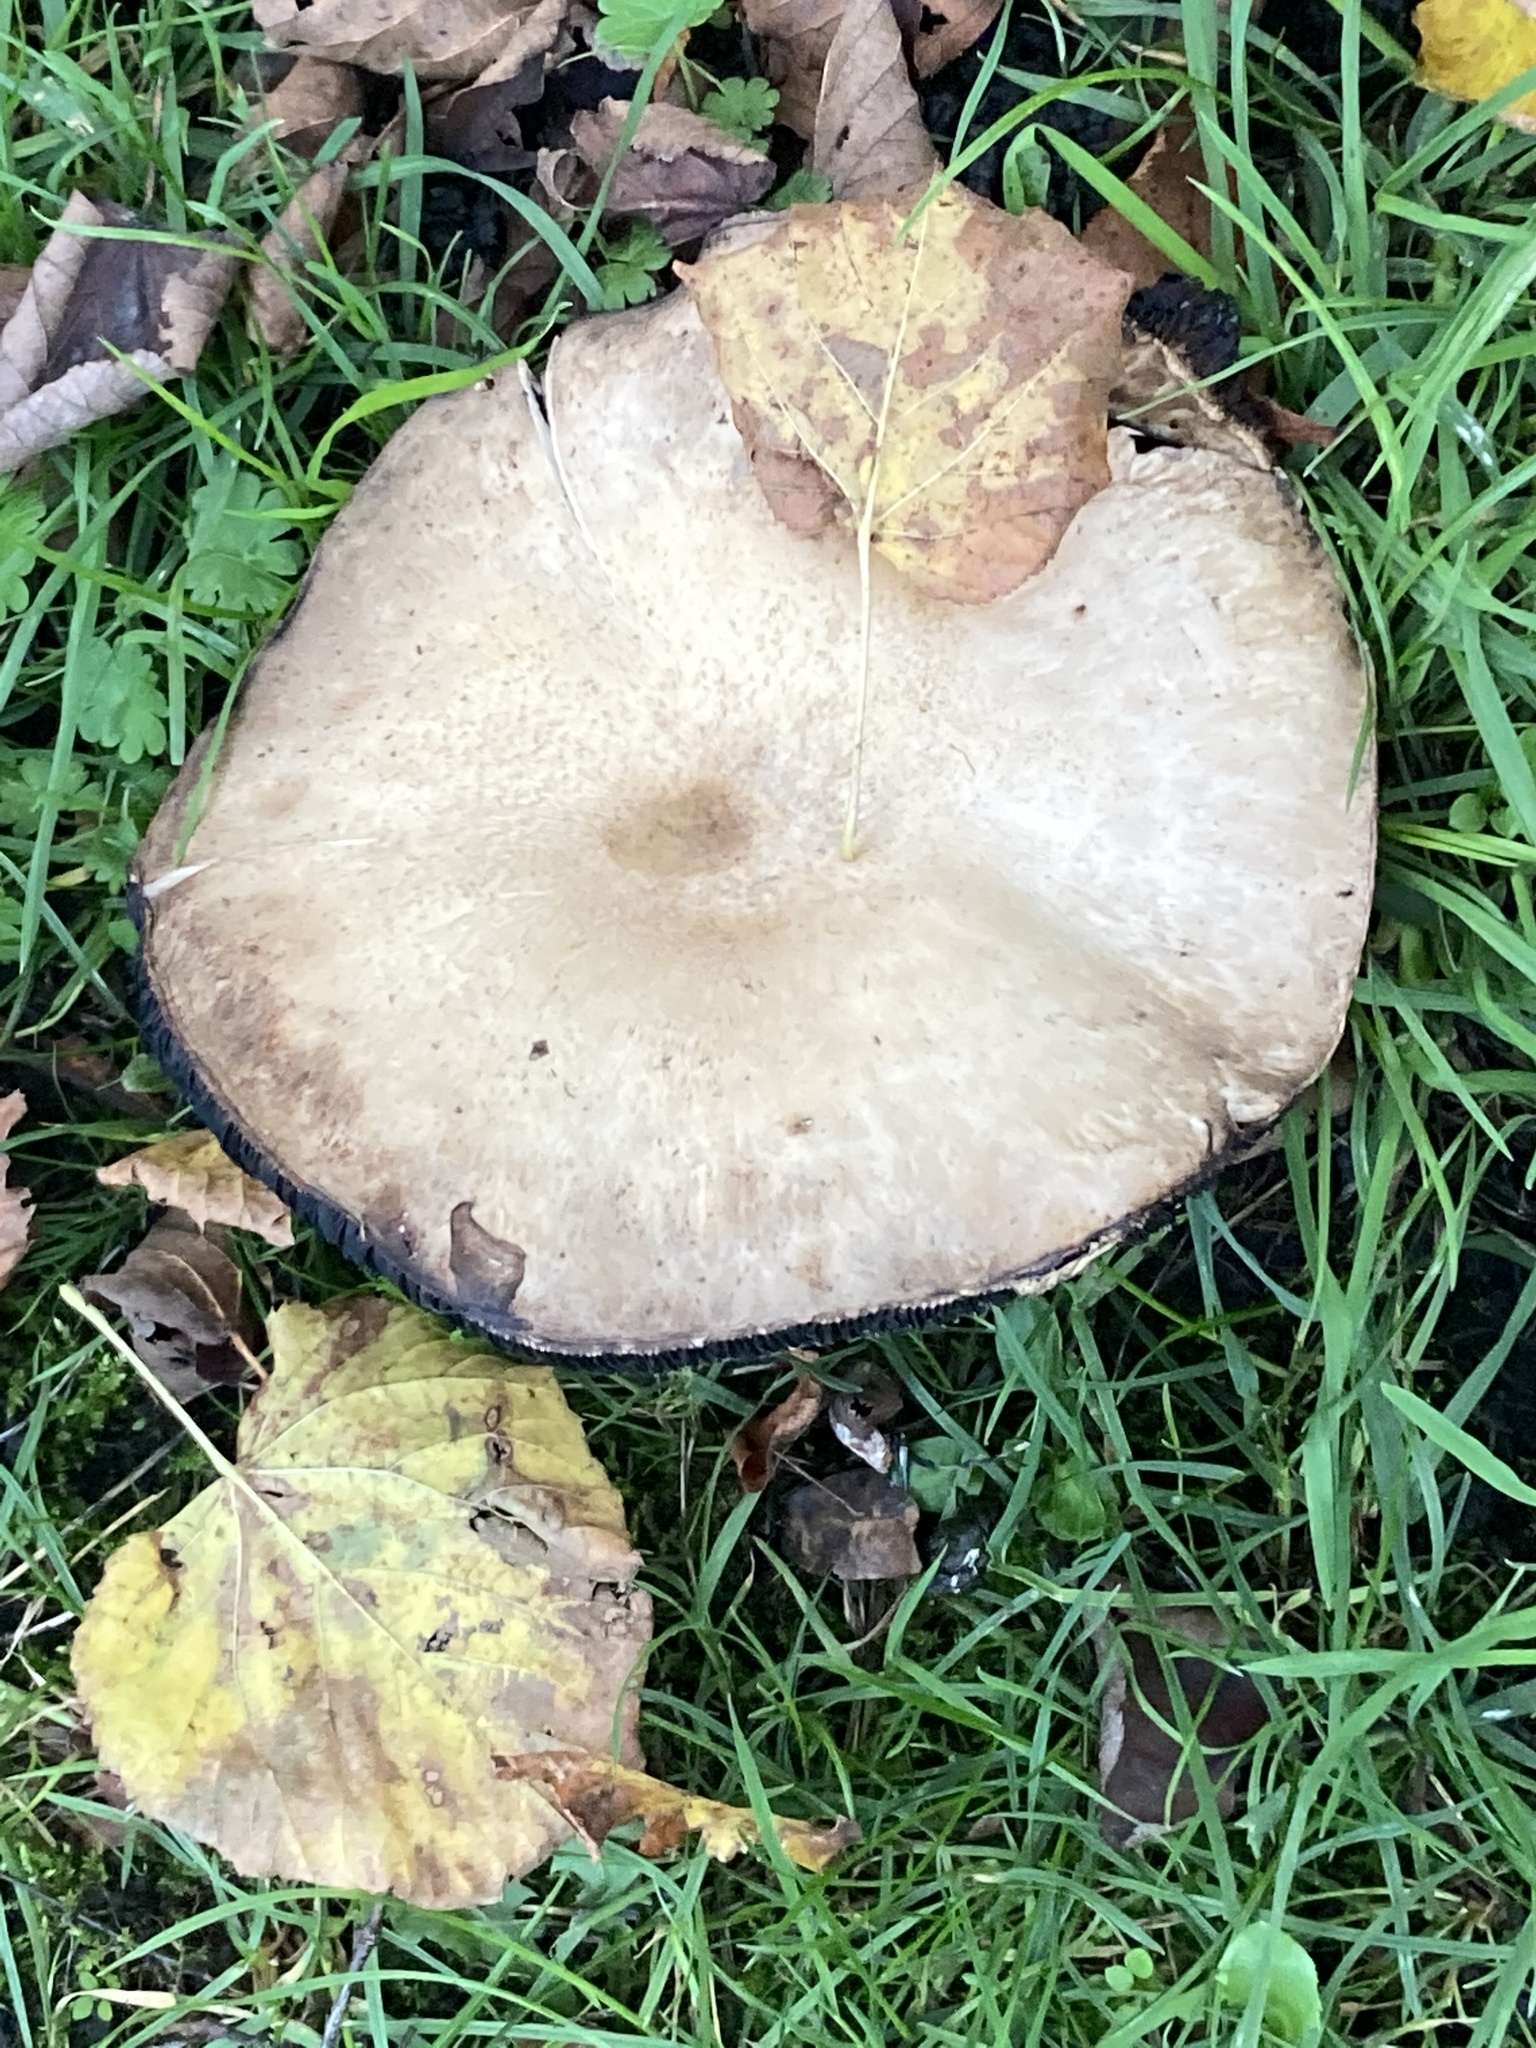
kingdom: Fungi
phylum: Basidiomycota
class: Agaricomycetes
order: Agaricales
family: Agaricaceae
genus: Agaricus
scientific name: Agaricus arvensis
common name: Horse mushroom
